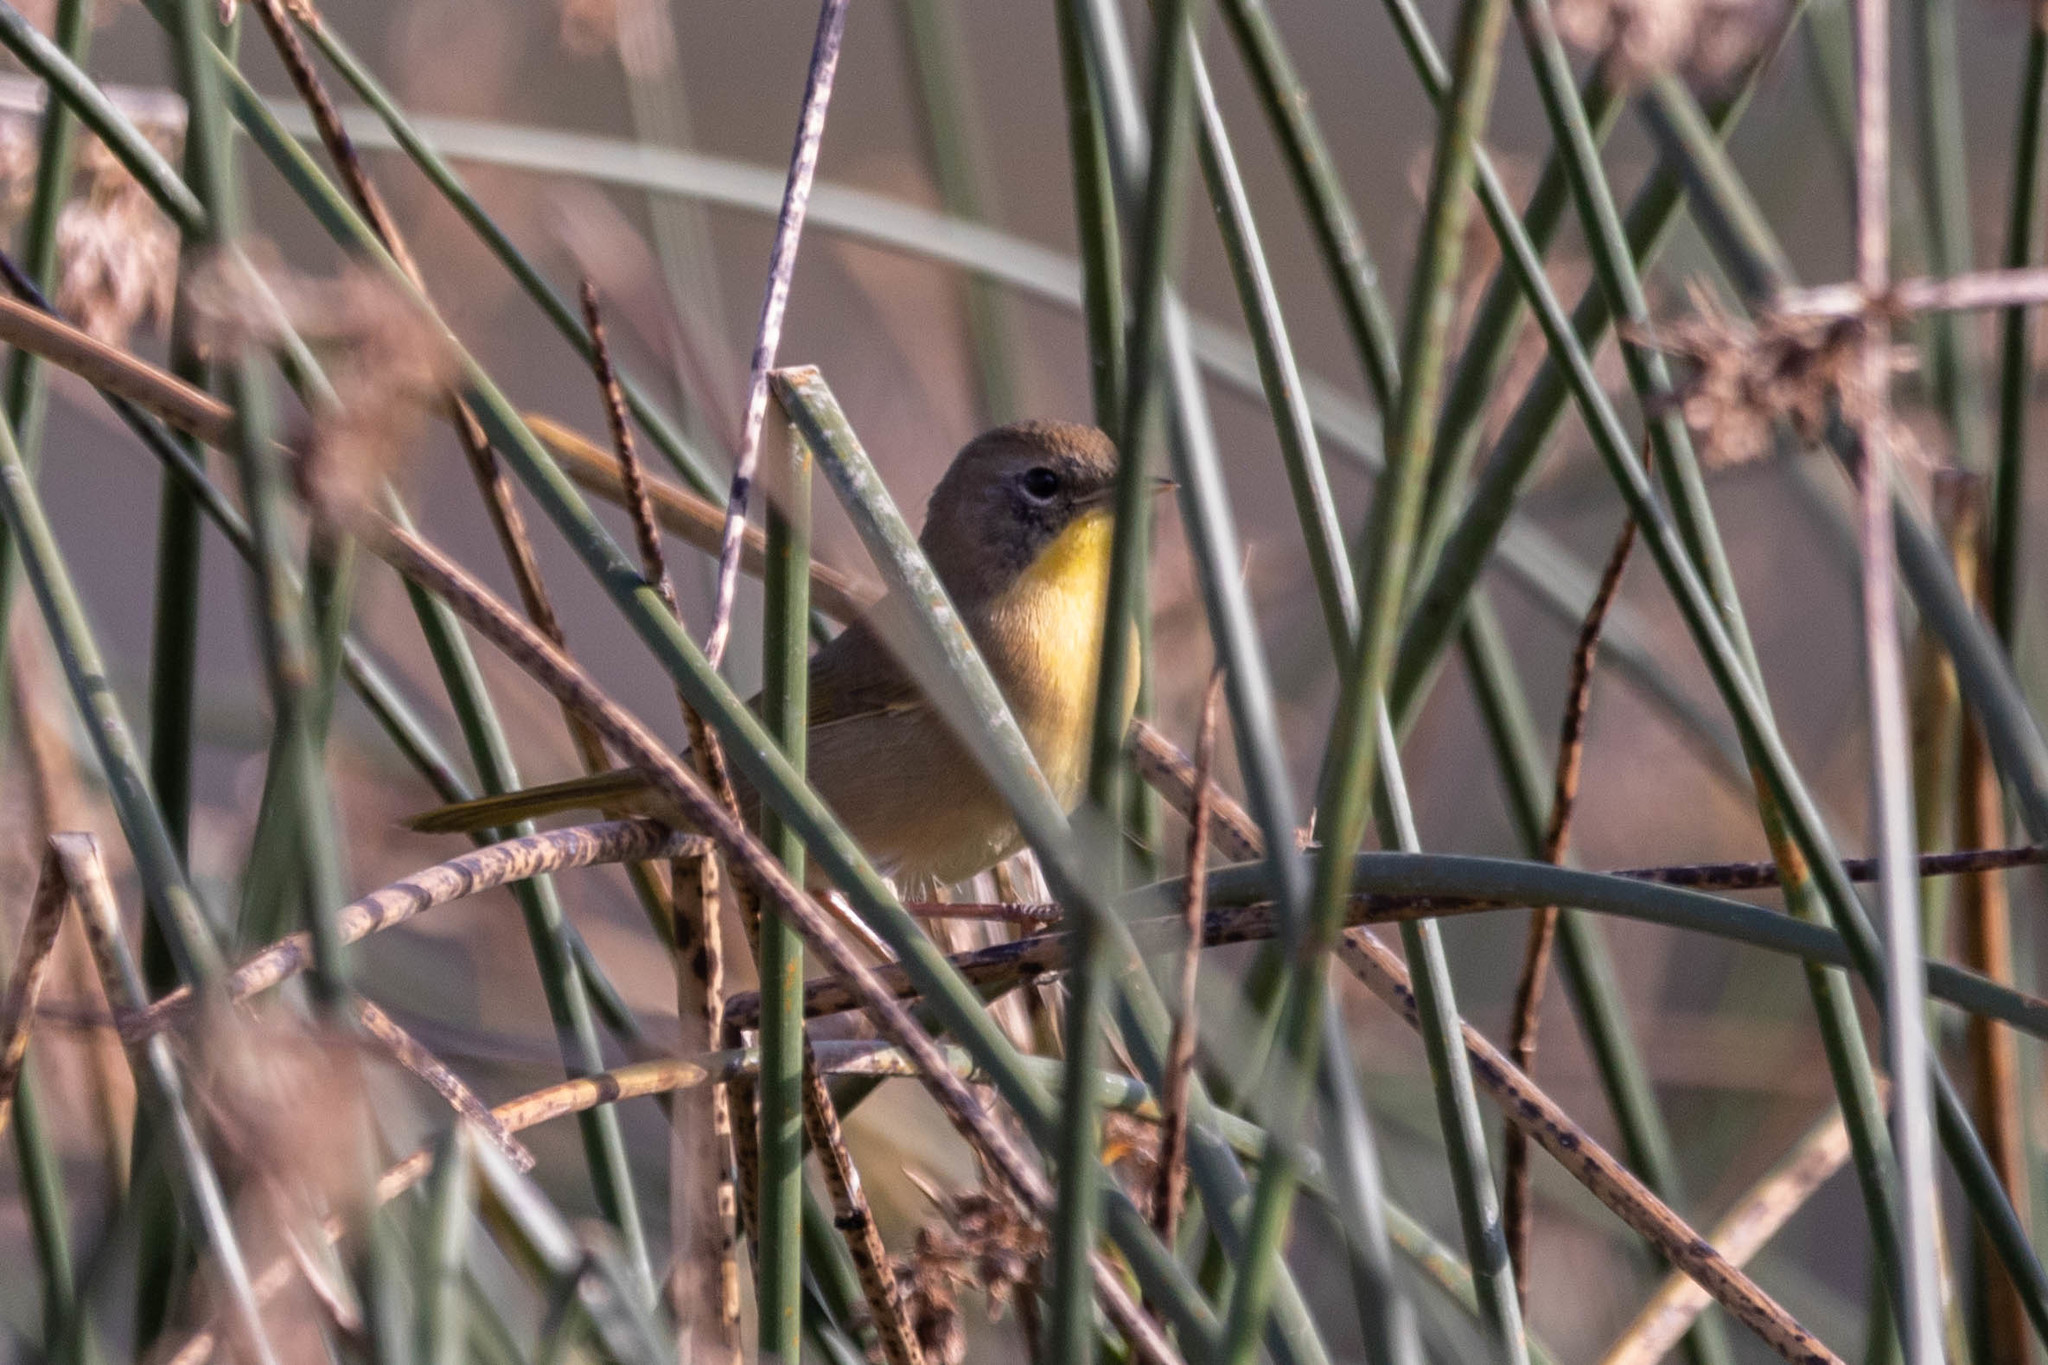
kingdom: Animalia
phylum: Chordata
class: Aves
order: Passeriformes
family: Parulidae
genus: Geothlypis
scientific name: Geothlypis trichas
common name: Common yellowthroat
